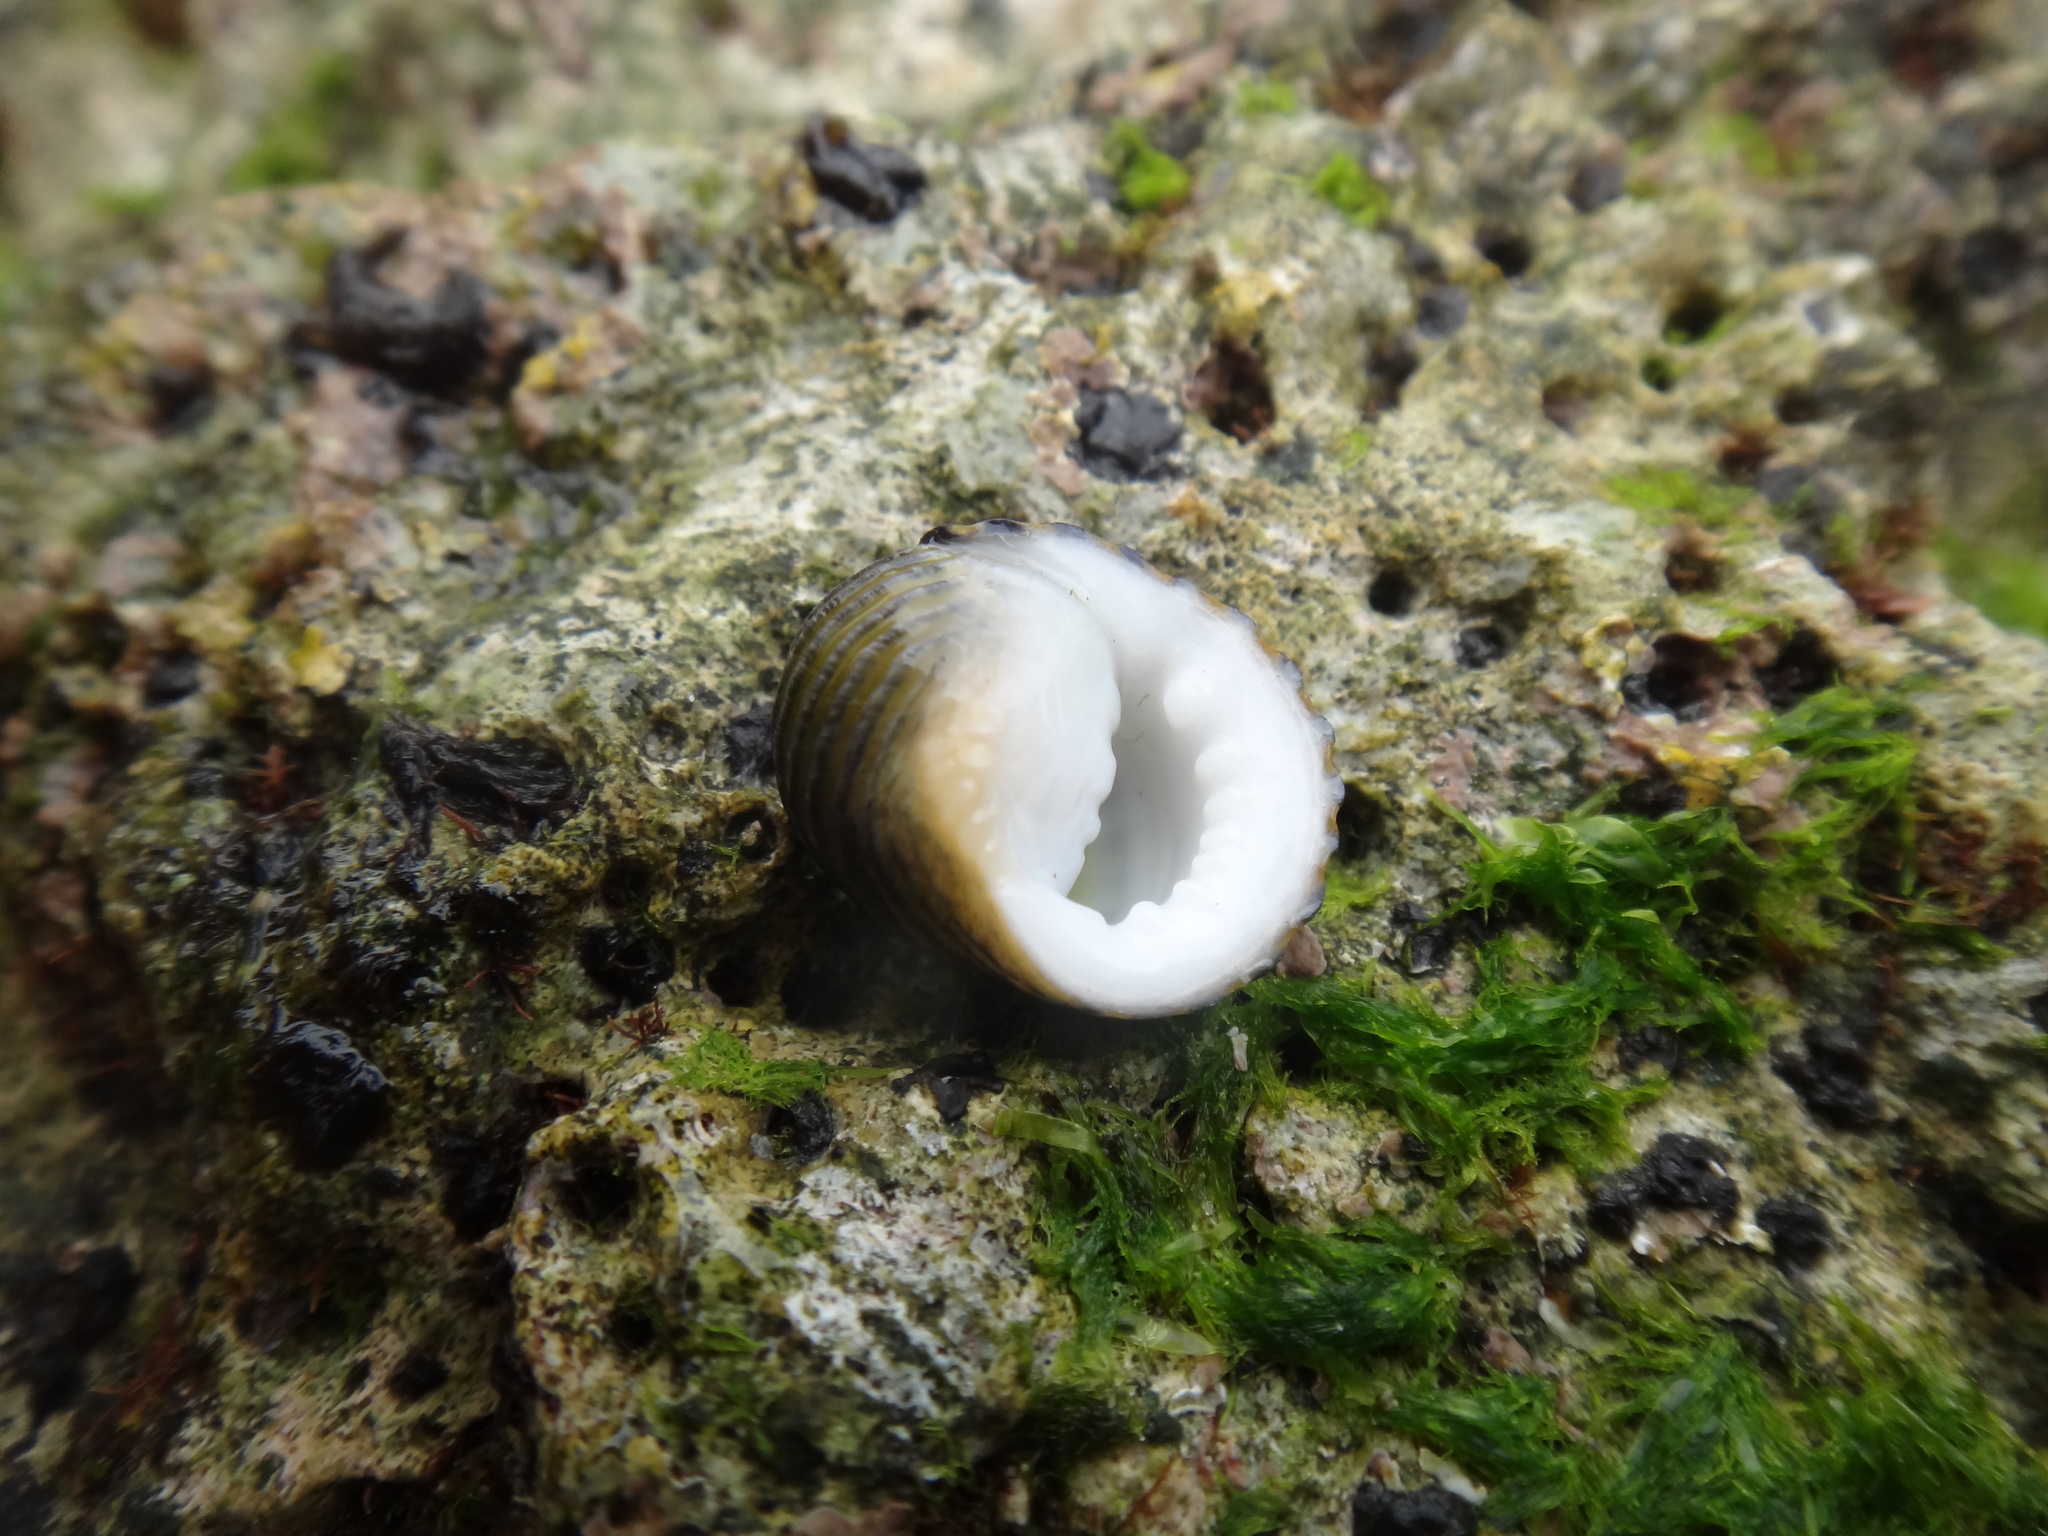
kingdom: Animalia
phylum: Mollusca
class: Gastropoda
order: Cycloneritida
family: Neritidae
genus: Nerita
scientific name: Nerita costata
